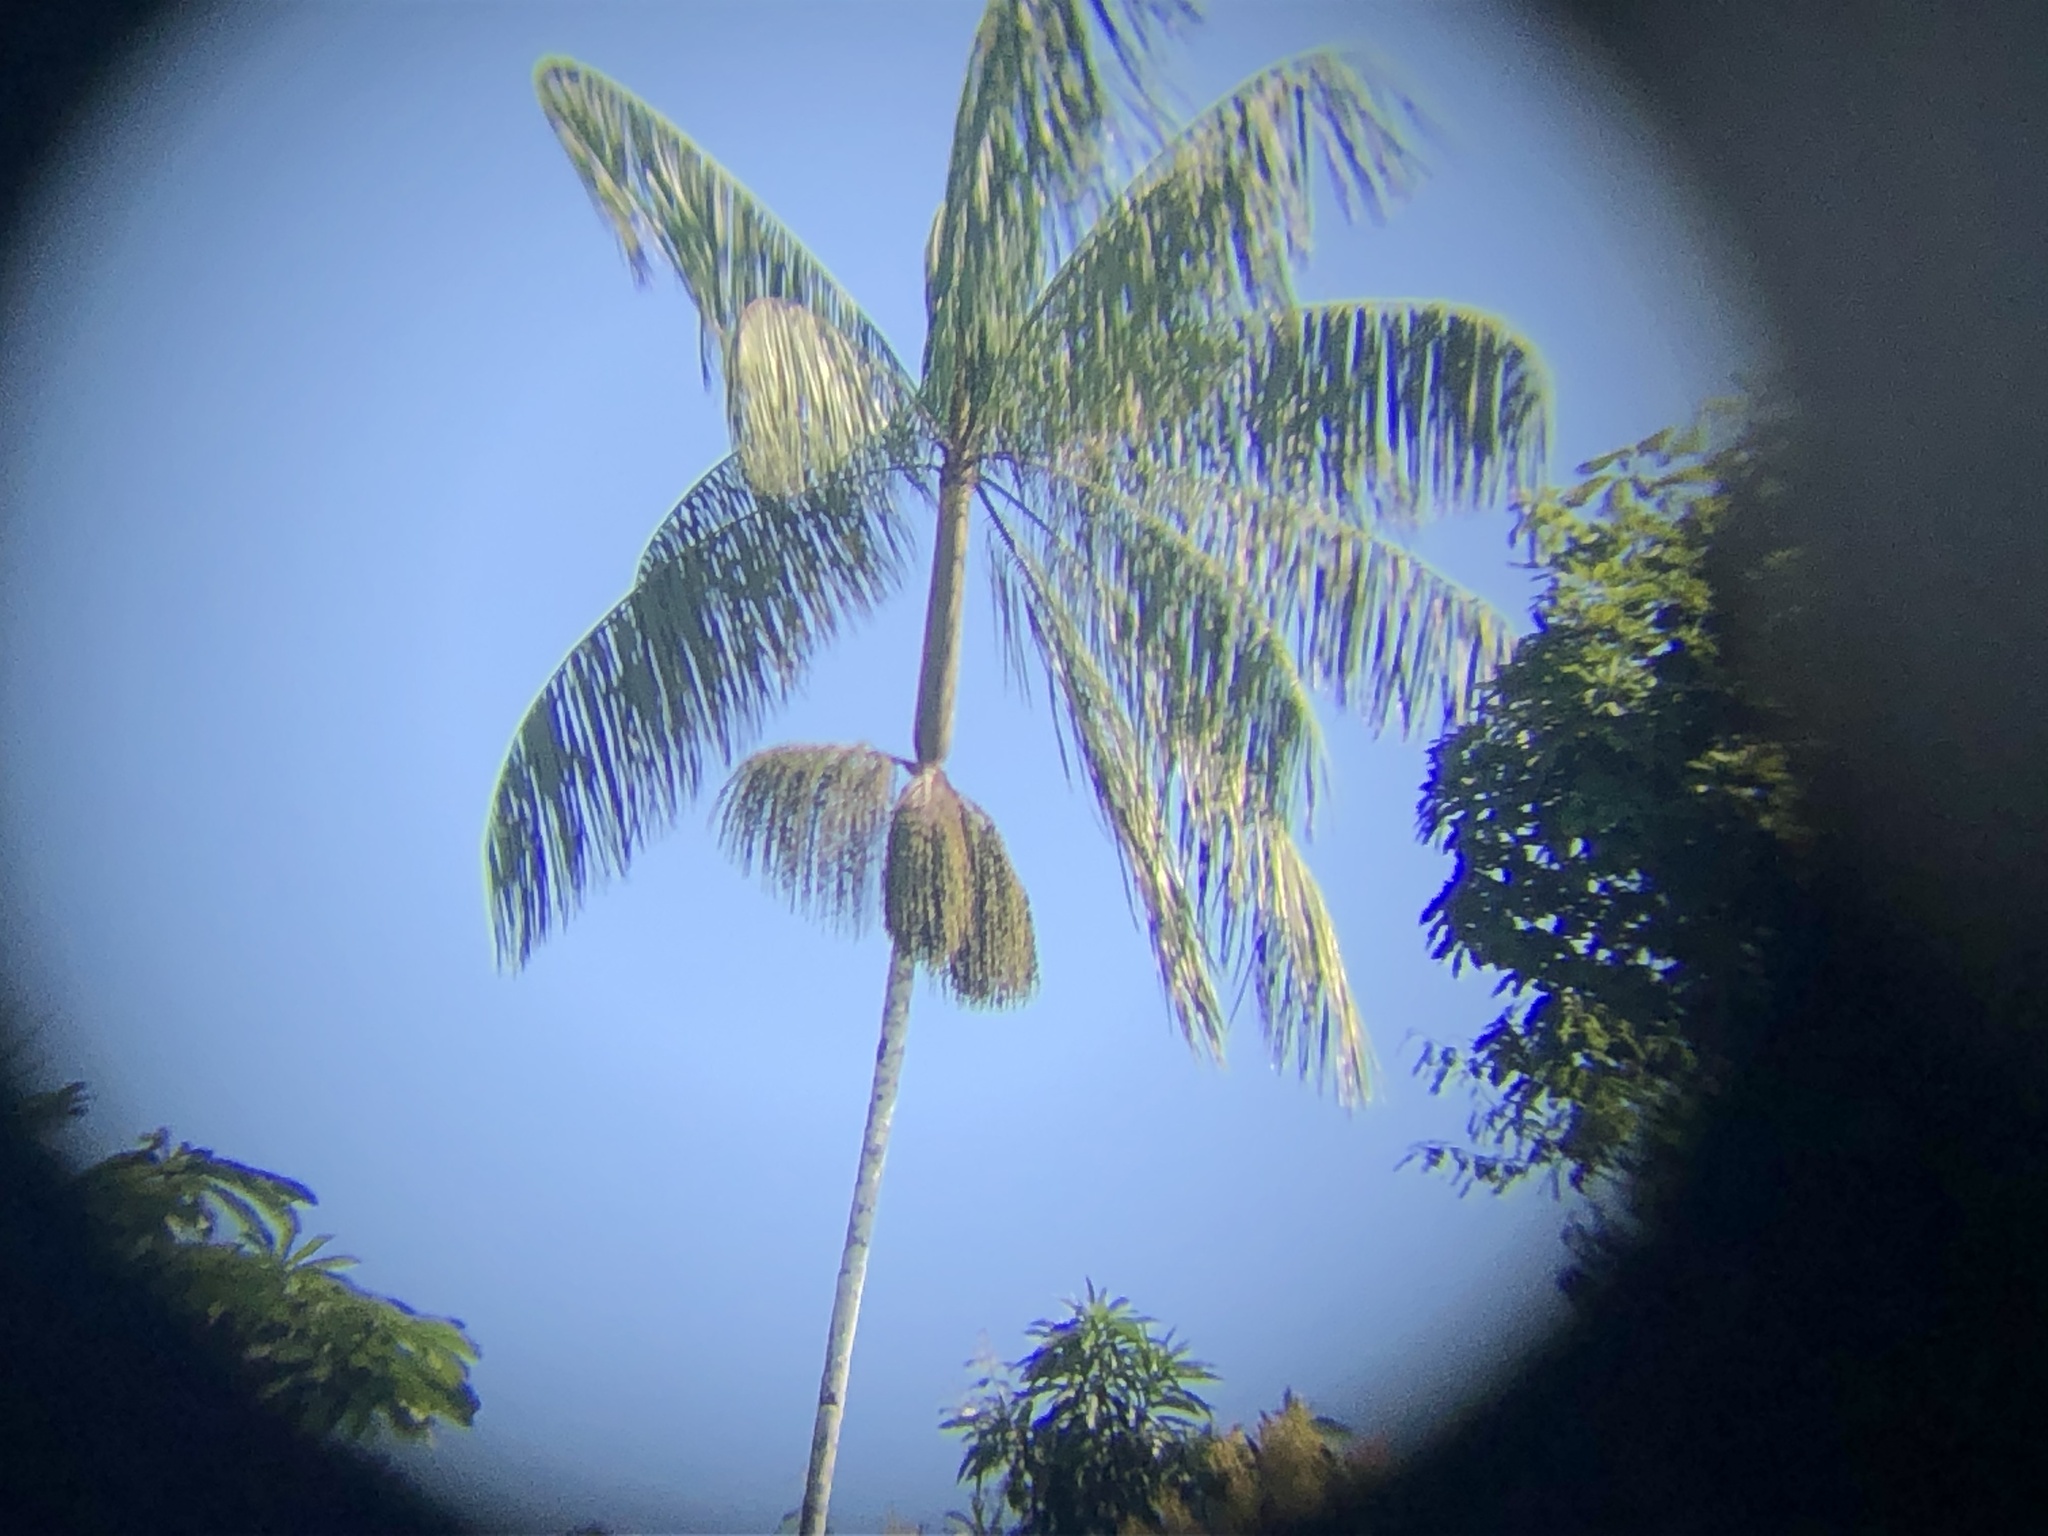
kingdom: Plantae
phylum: Tracheophyta
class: Liliopsida
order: Arecales
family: Arecaceae
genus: Euterpe
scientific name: Euterpe precatoria
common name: Mountain-cabbage
